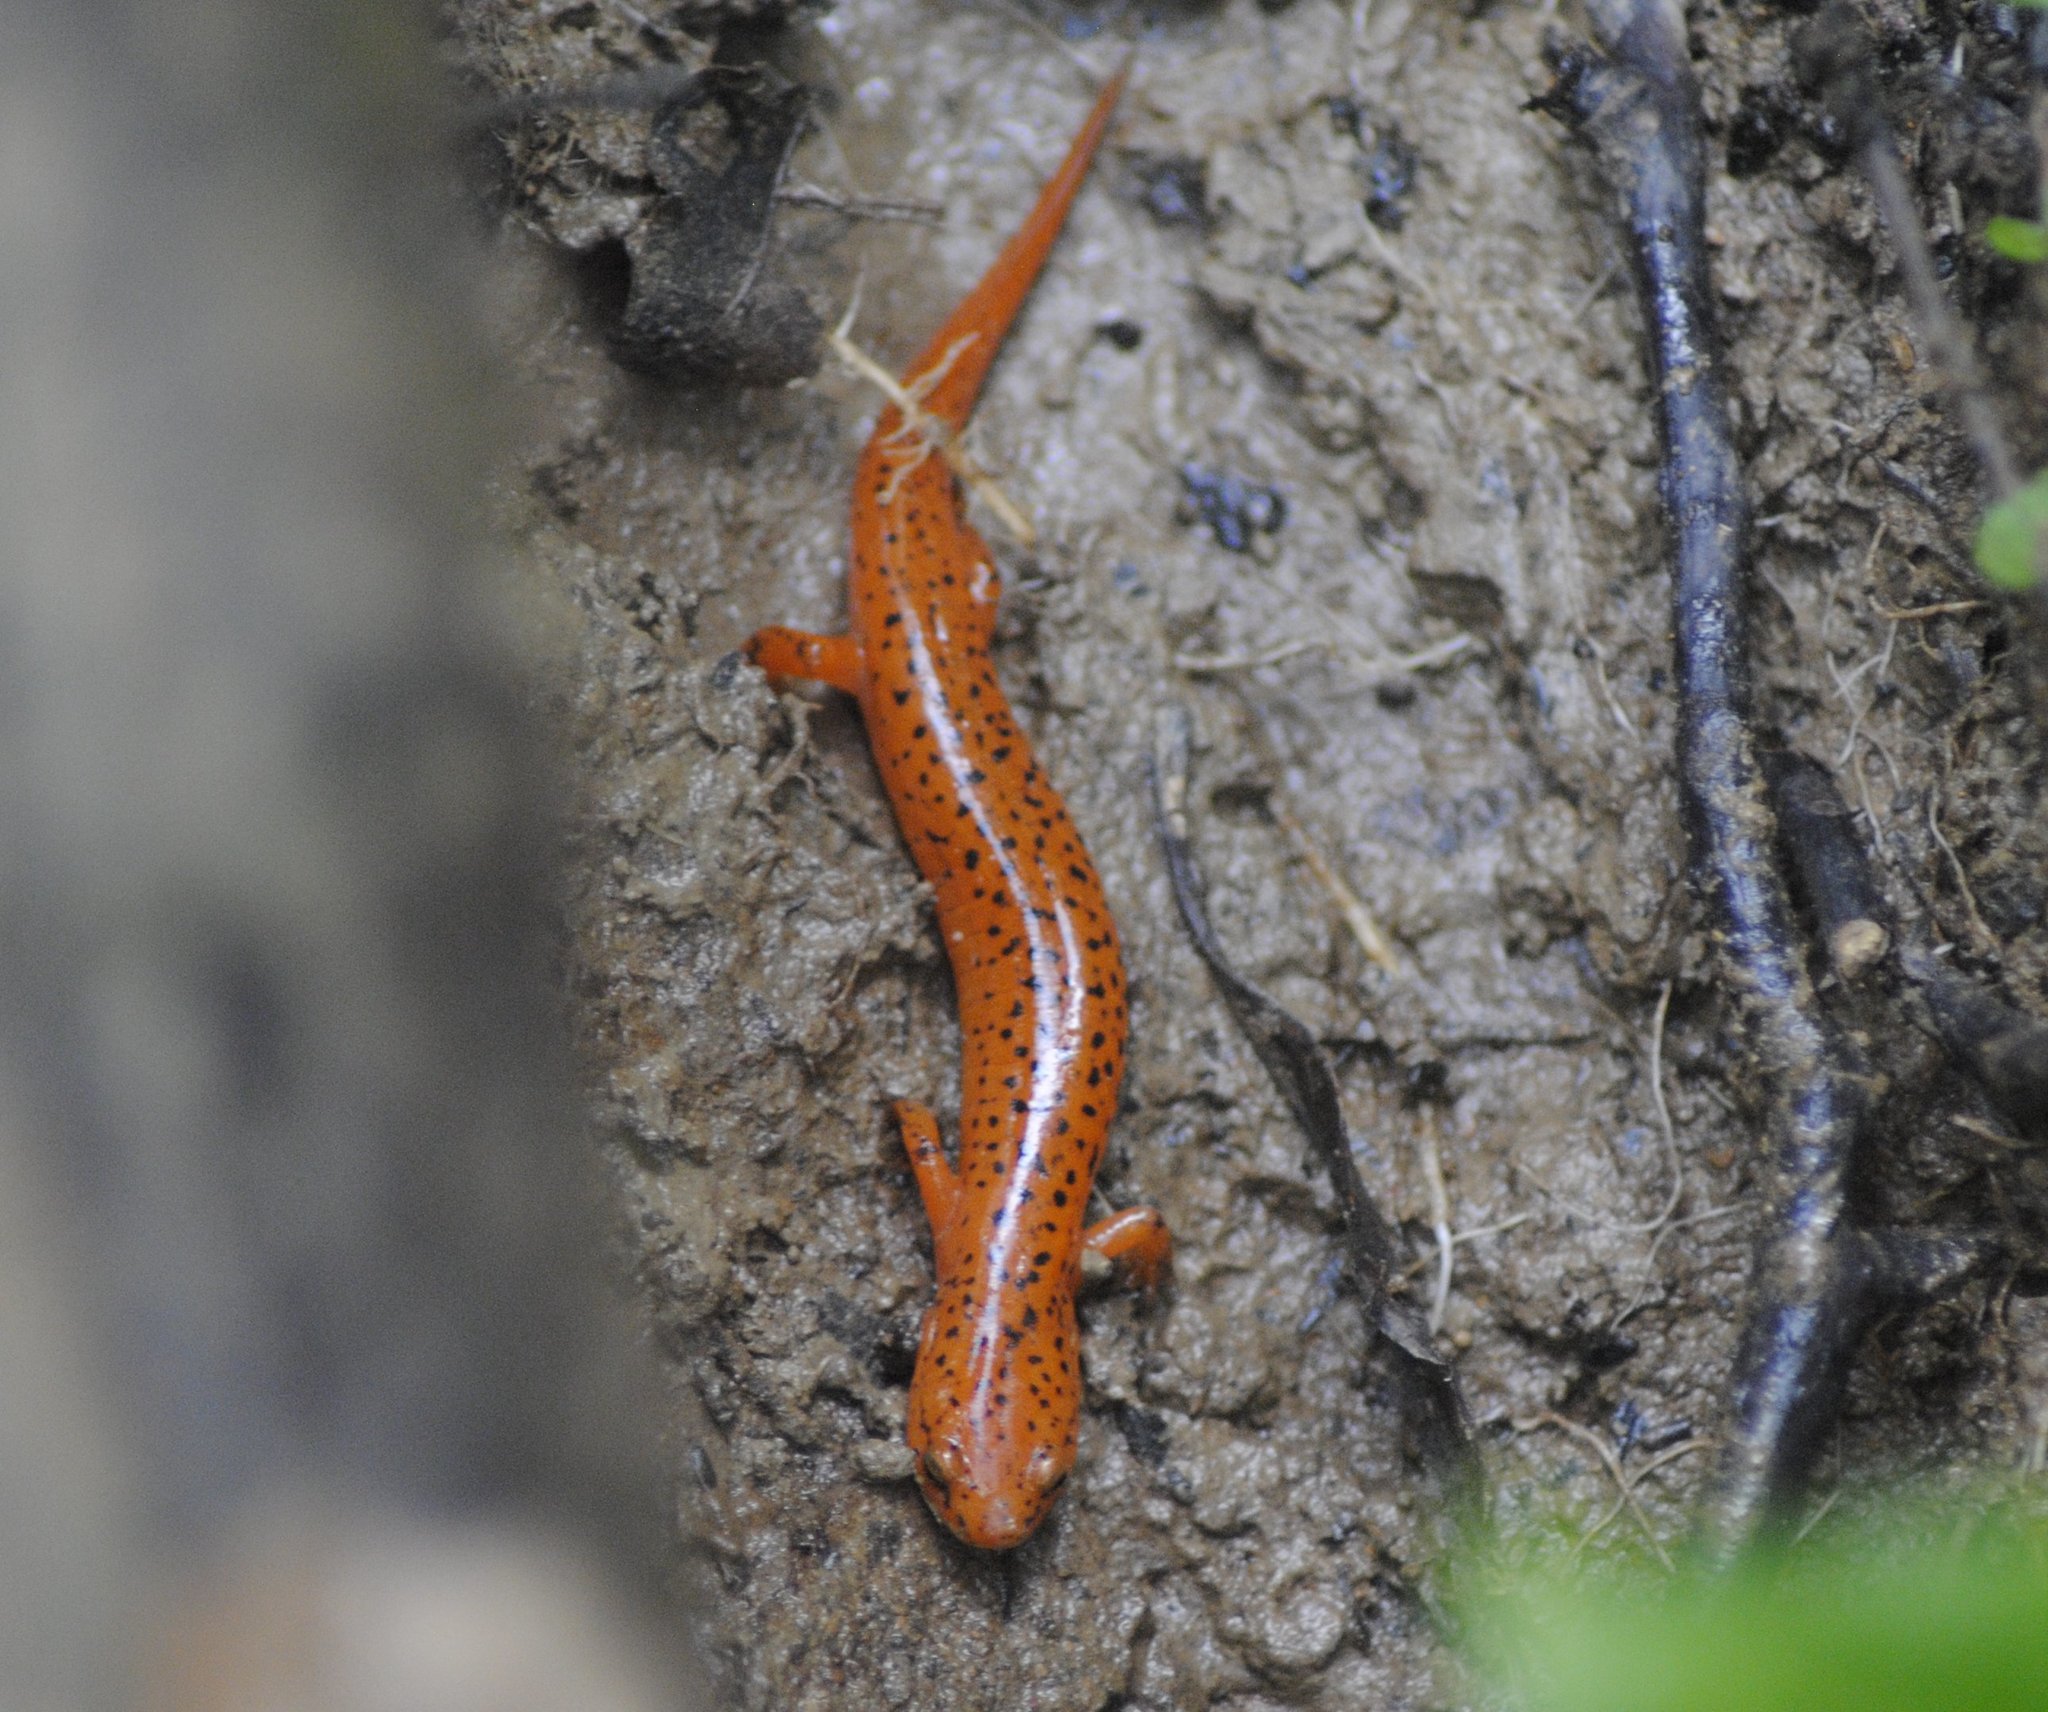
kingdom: Animalia
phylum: Chordata
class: Amphibia
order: Caudata
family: Plethodontidae
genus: Pseudotriton
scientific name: Pseudotriton ruber
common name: Red salamander
